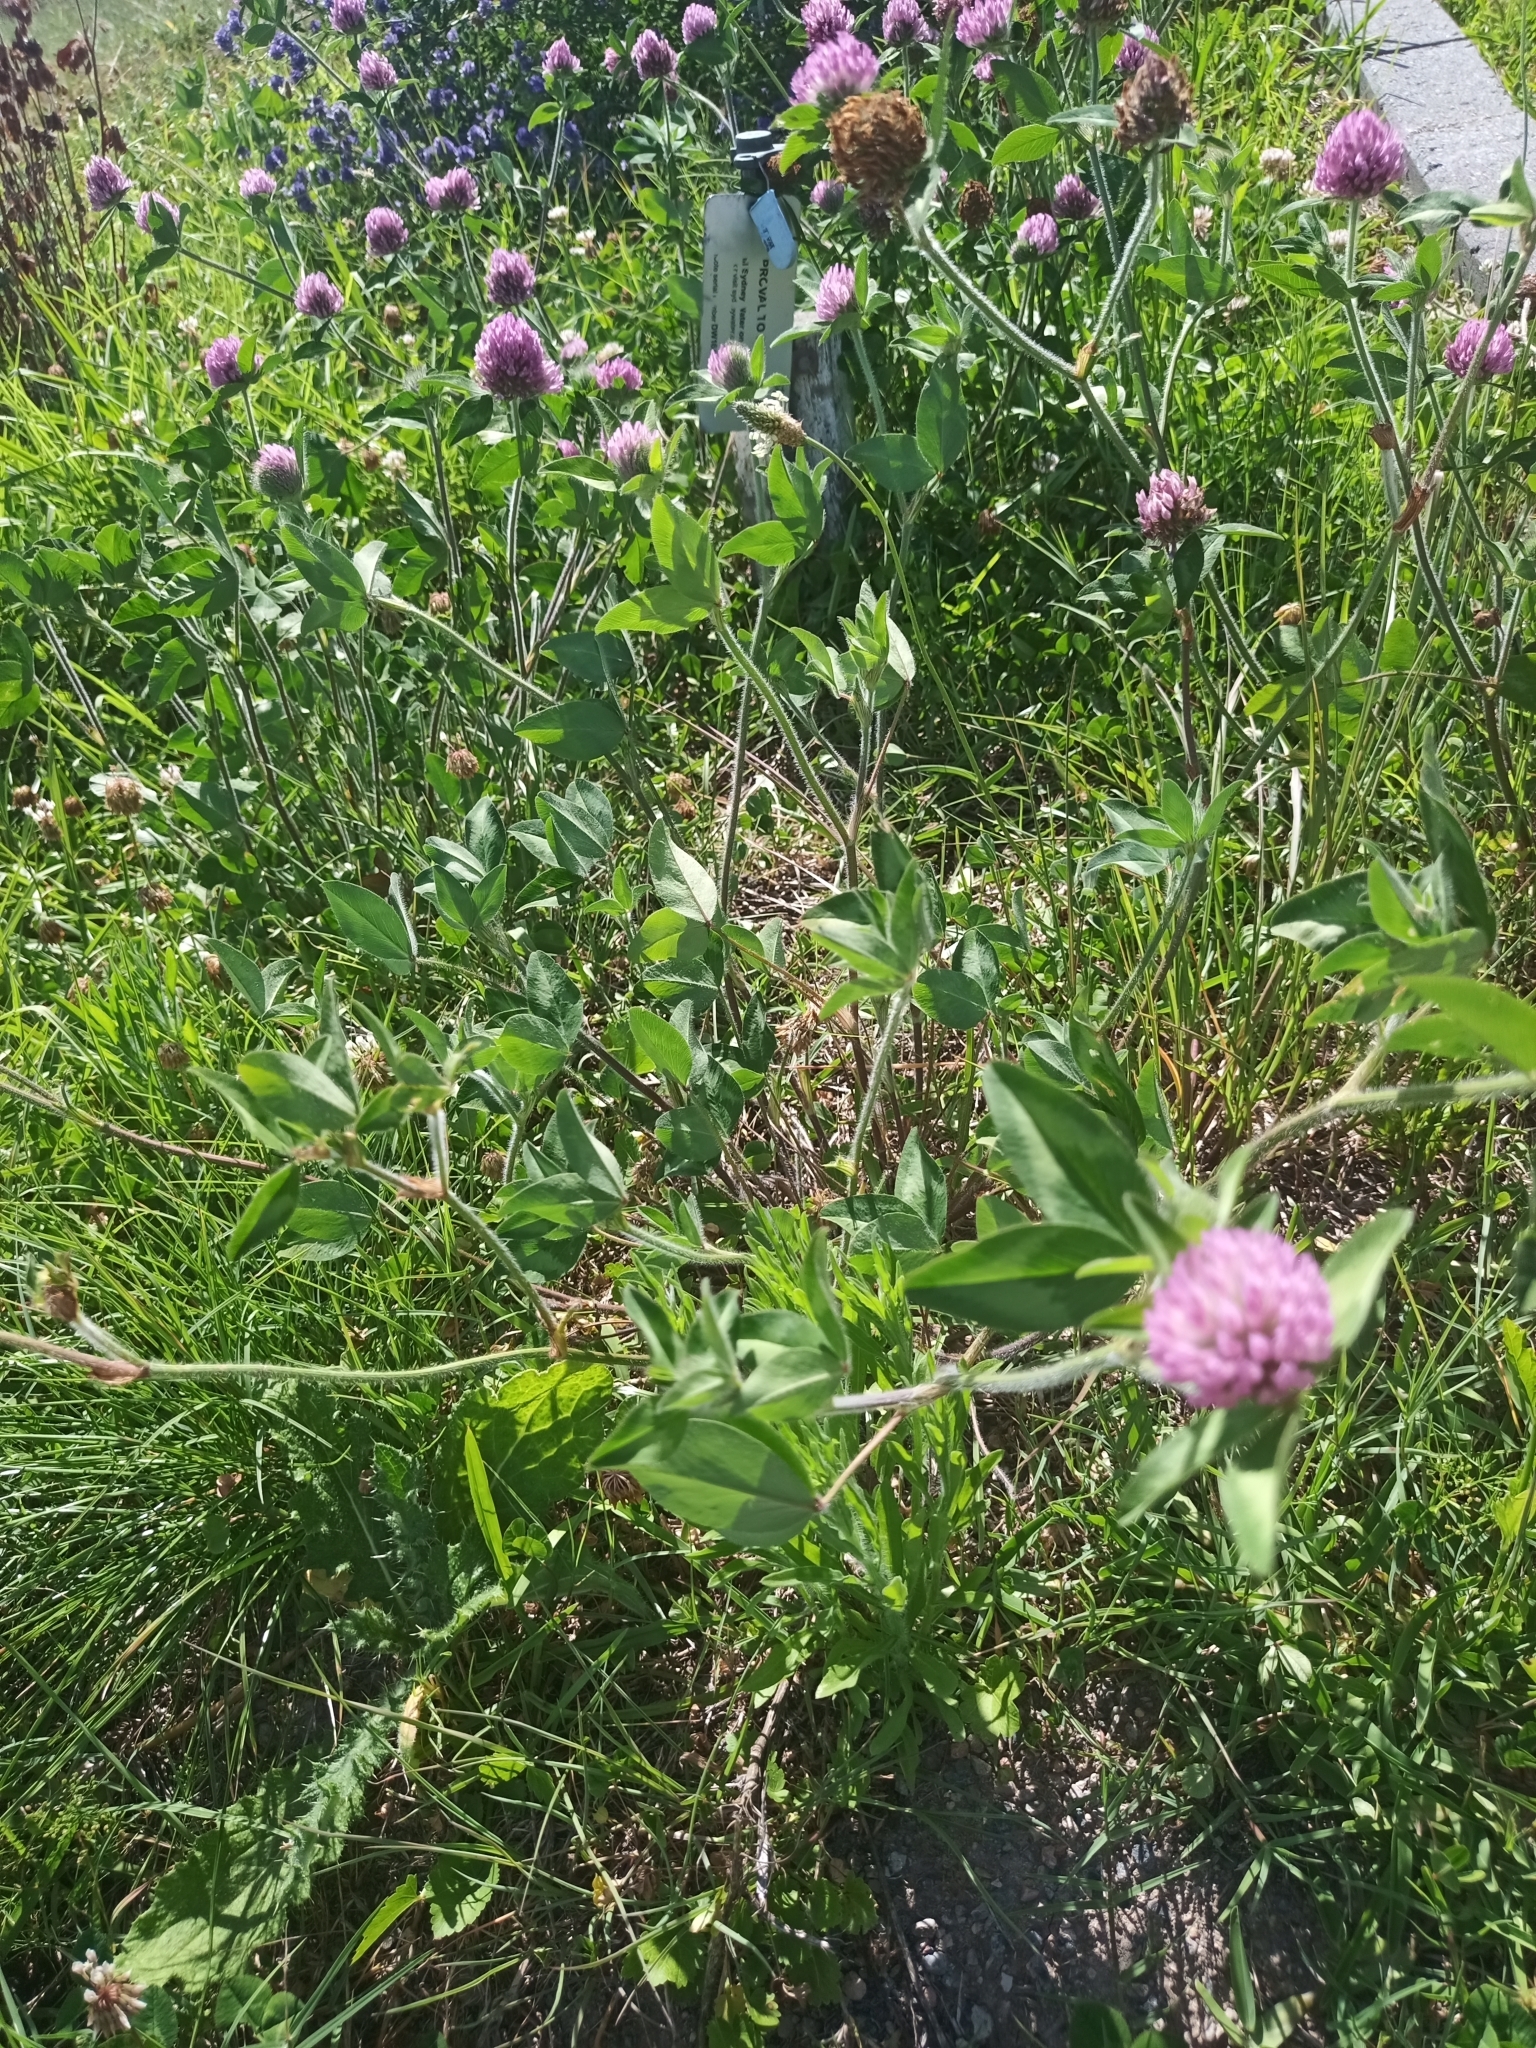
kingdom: Plantae
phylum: Tracheophyta
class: Magnoliopsida
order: Fabales
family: Fabaceae
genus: Trifolium
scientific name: Trifolium pratense
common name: Red clover
